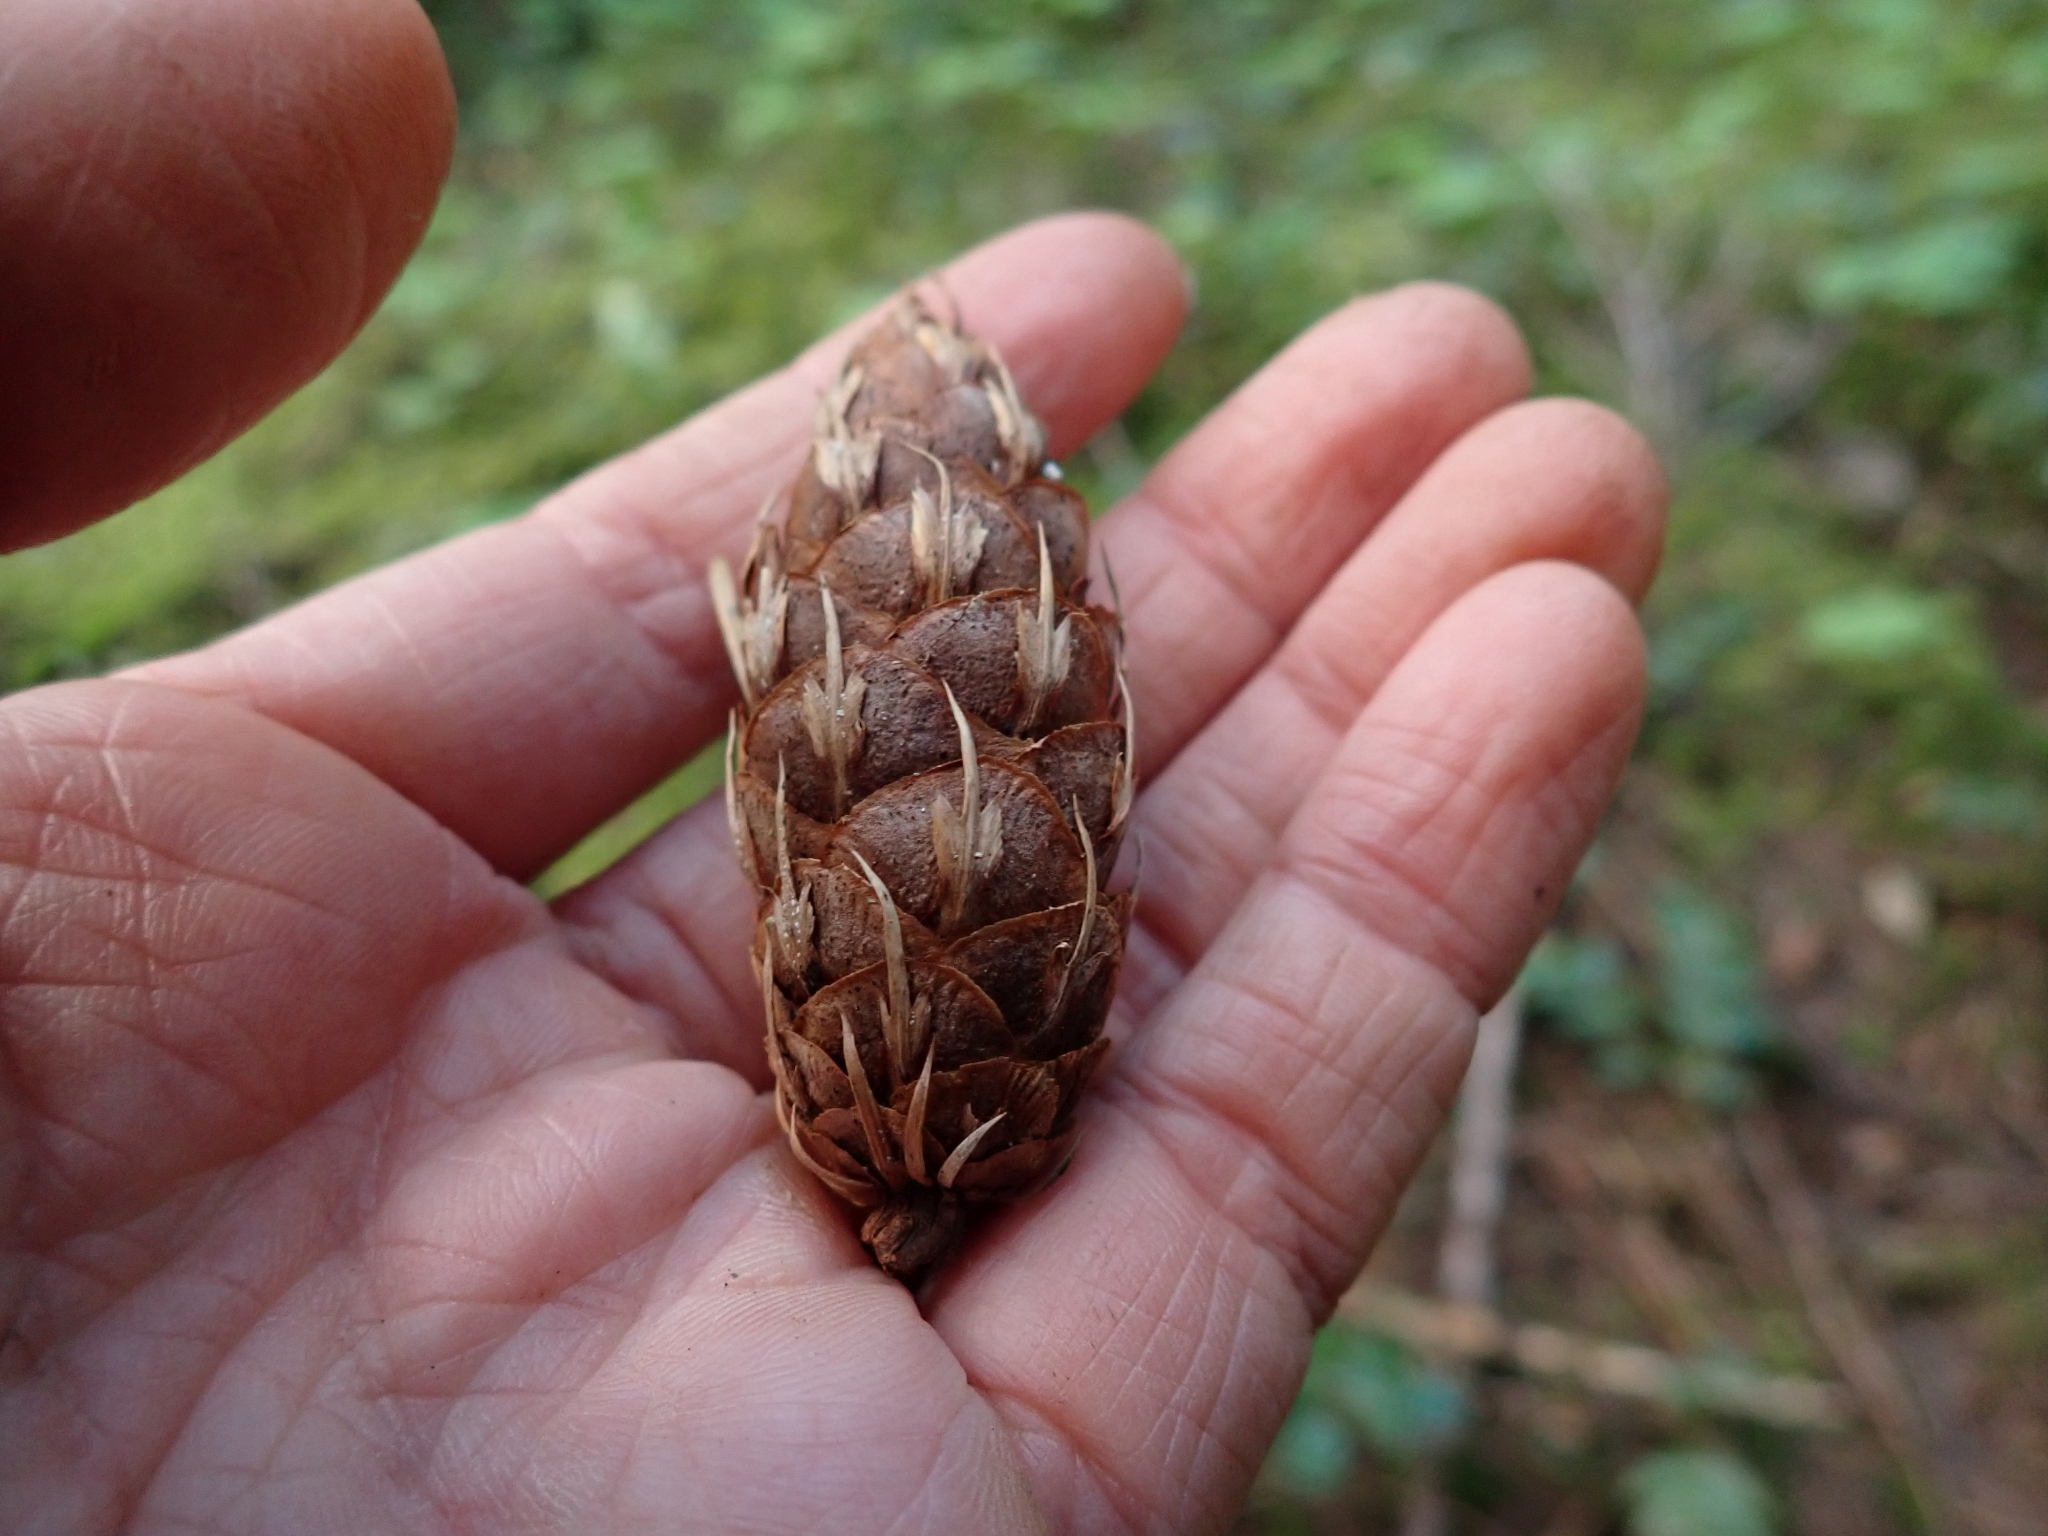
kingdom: Plantae
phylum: Tracheophyta
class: Pinopsida
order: Pinales
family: Pinaceae
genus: Pseudotsuga
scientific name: Pseudotsuga menziesii
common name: Douglas fir
